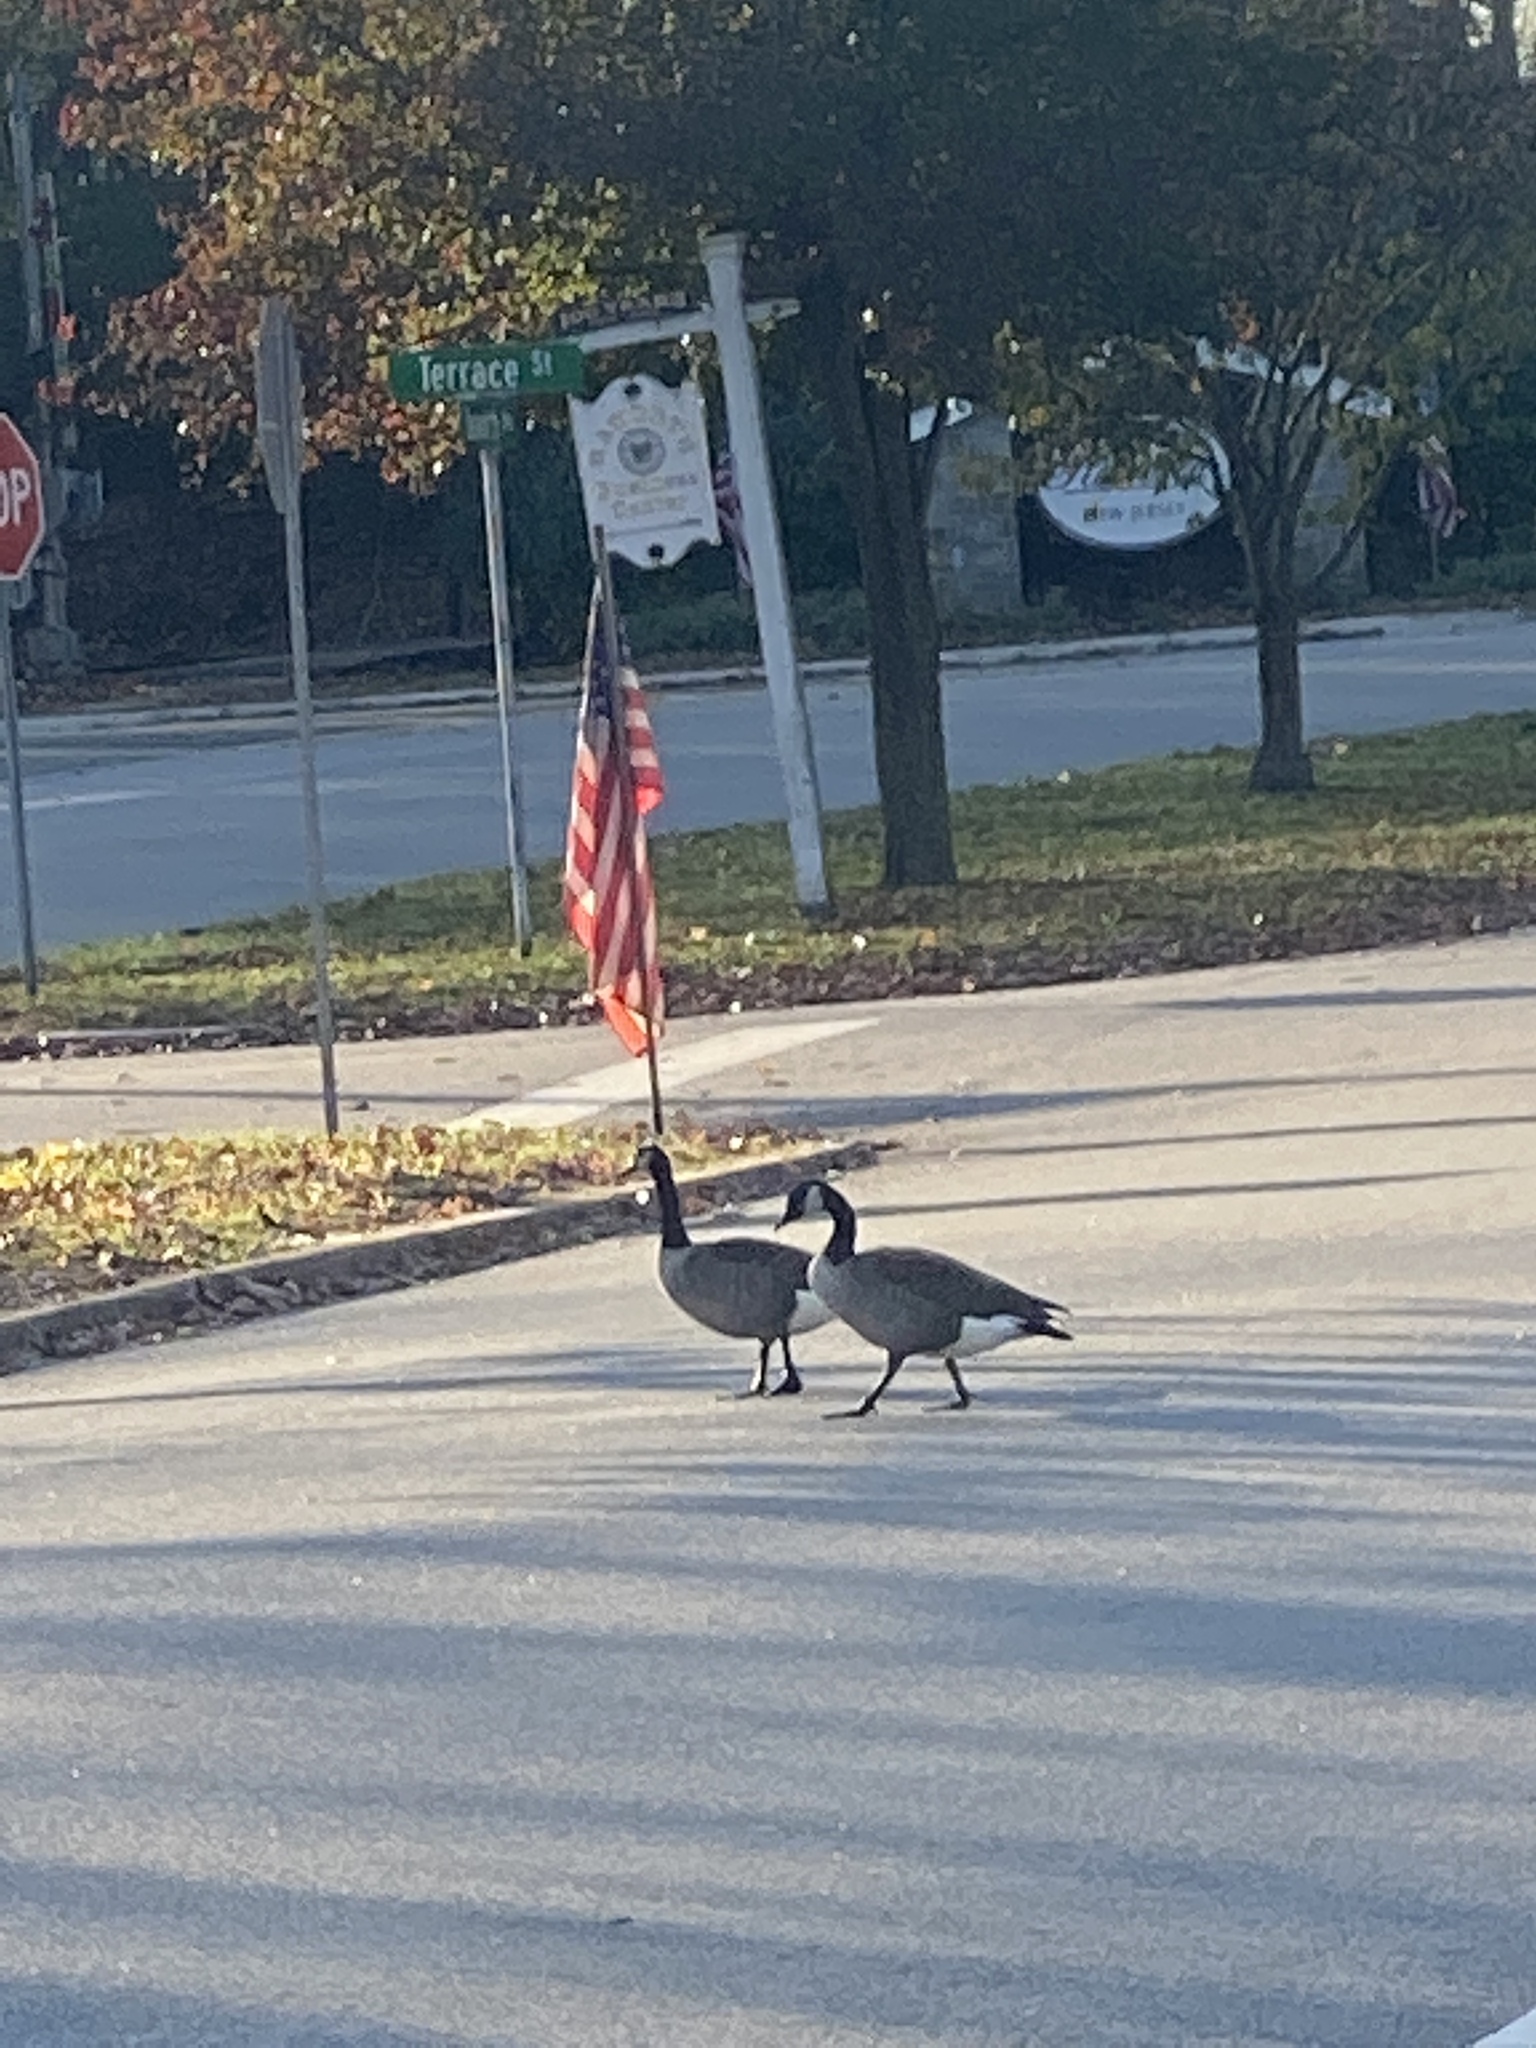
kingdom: Animalia
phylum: Chordata
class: Aves
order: Anseriformes
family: Anatidae
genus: Branta
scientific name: Branta canadensis
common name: Canada goose
